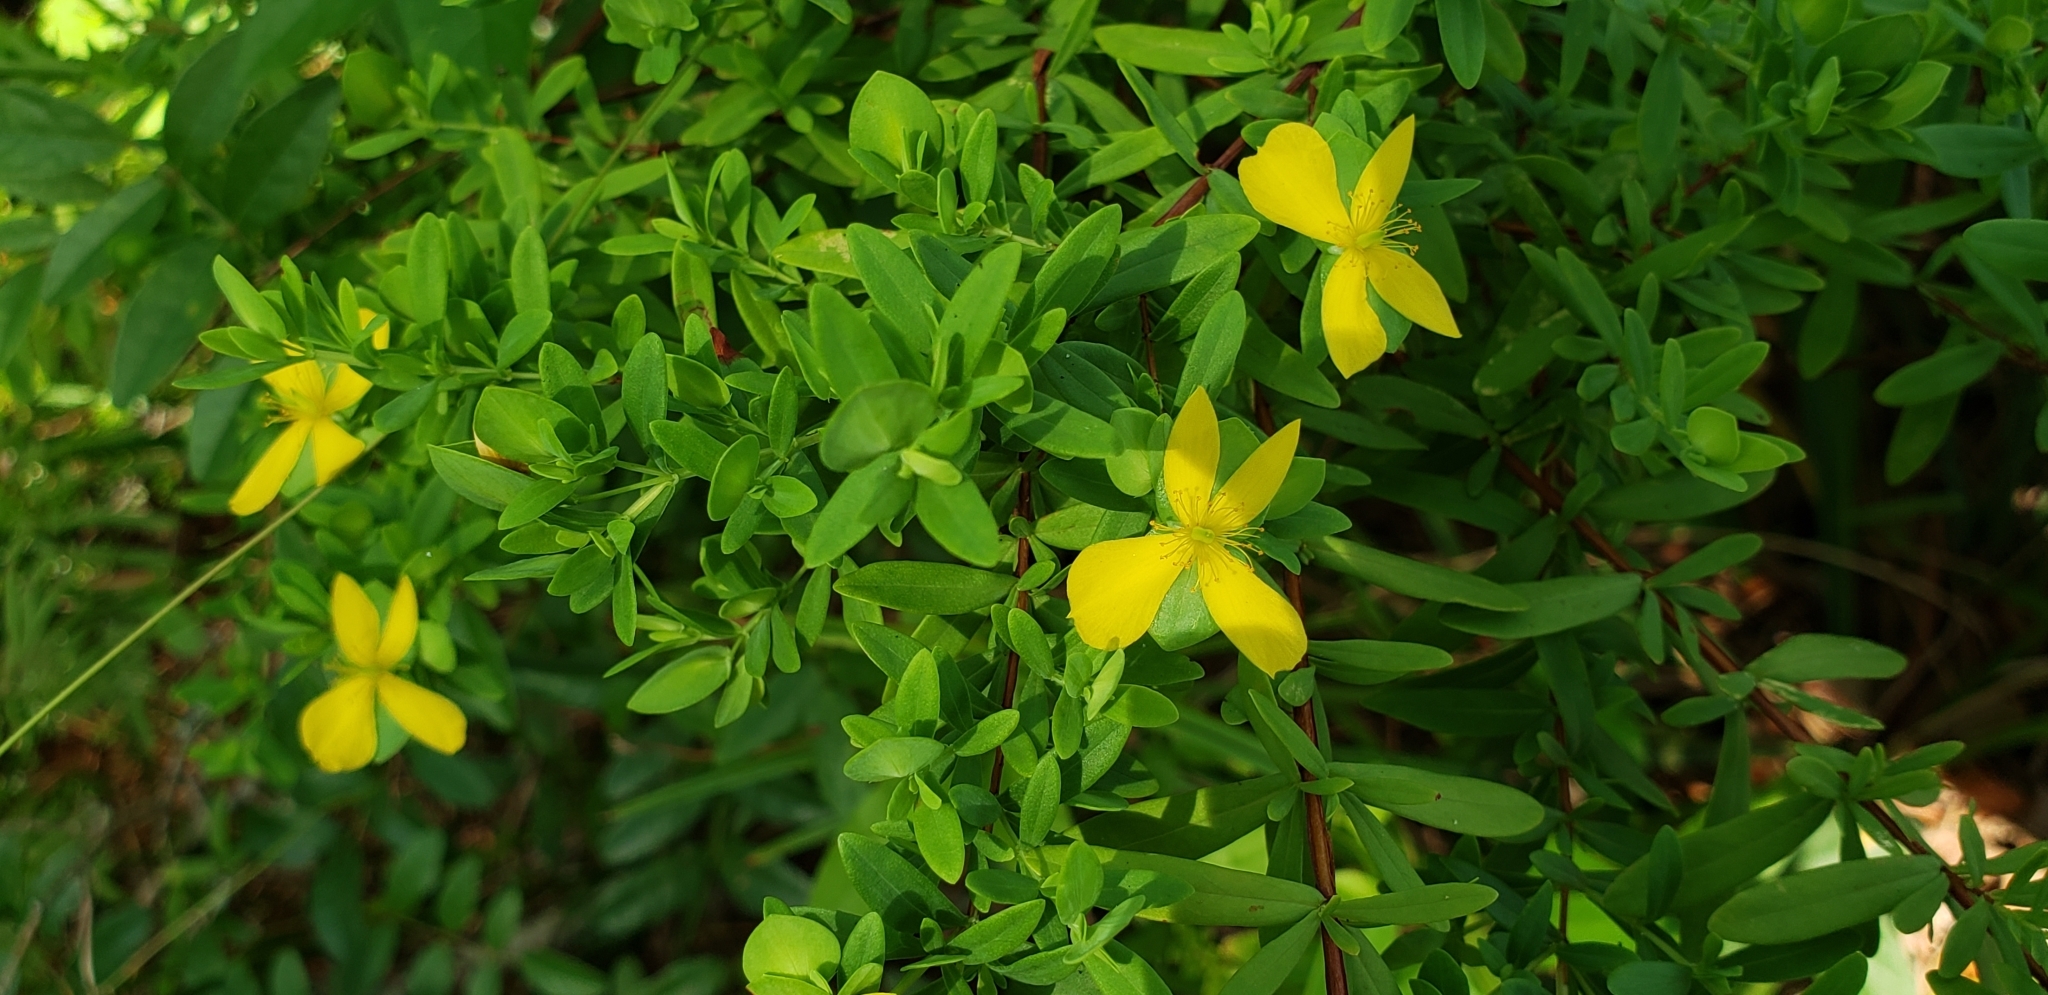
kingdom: Plantae
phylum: Tracheophyta
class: Magnoliopsida
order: Malpighiales
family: Hypericaceae
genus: Hypericum
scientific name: Hypericum hypericoides
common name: St. andrew's cross
